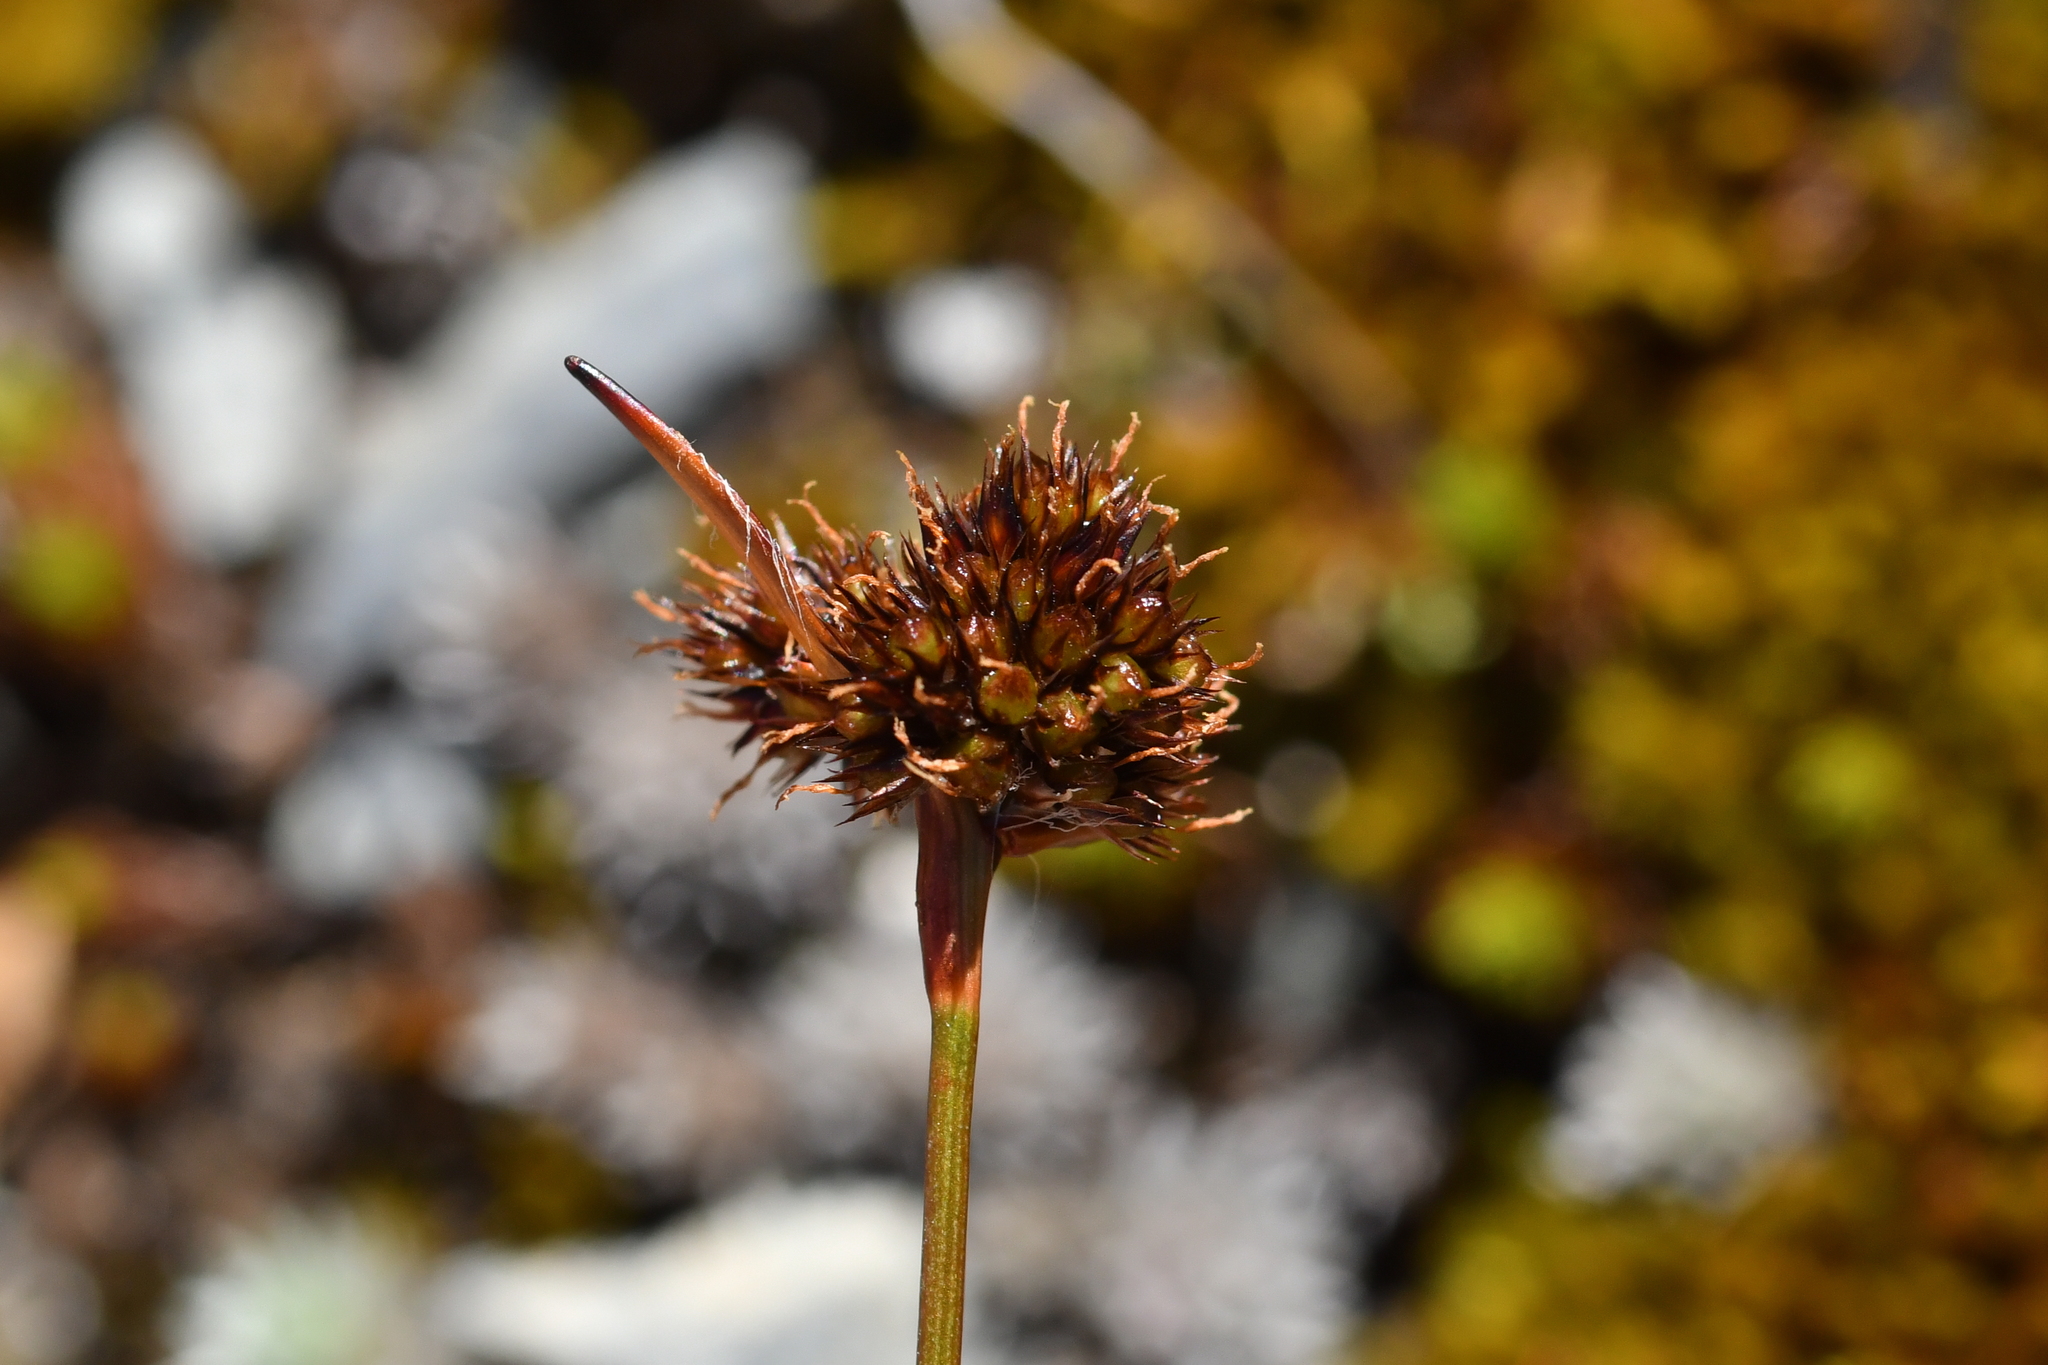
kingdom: Plantae
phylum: Tracheophyta
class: Liliopsida
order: Poales
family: Juncaceae
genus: Luzula
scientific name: Luzula rufa
